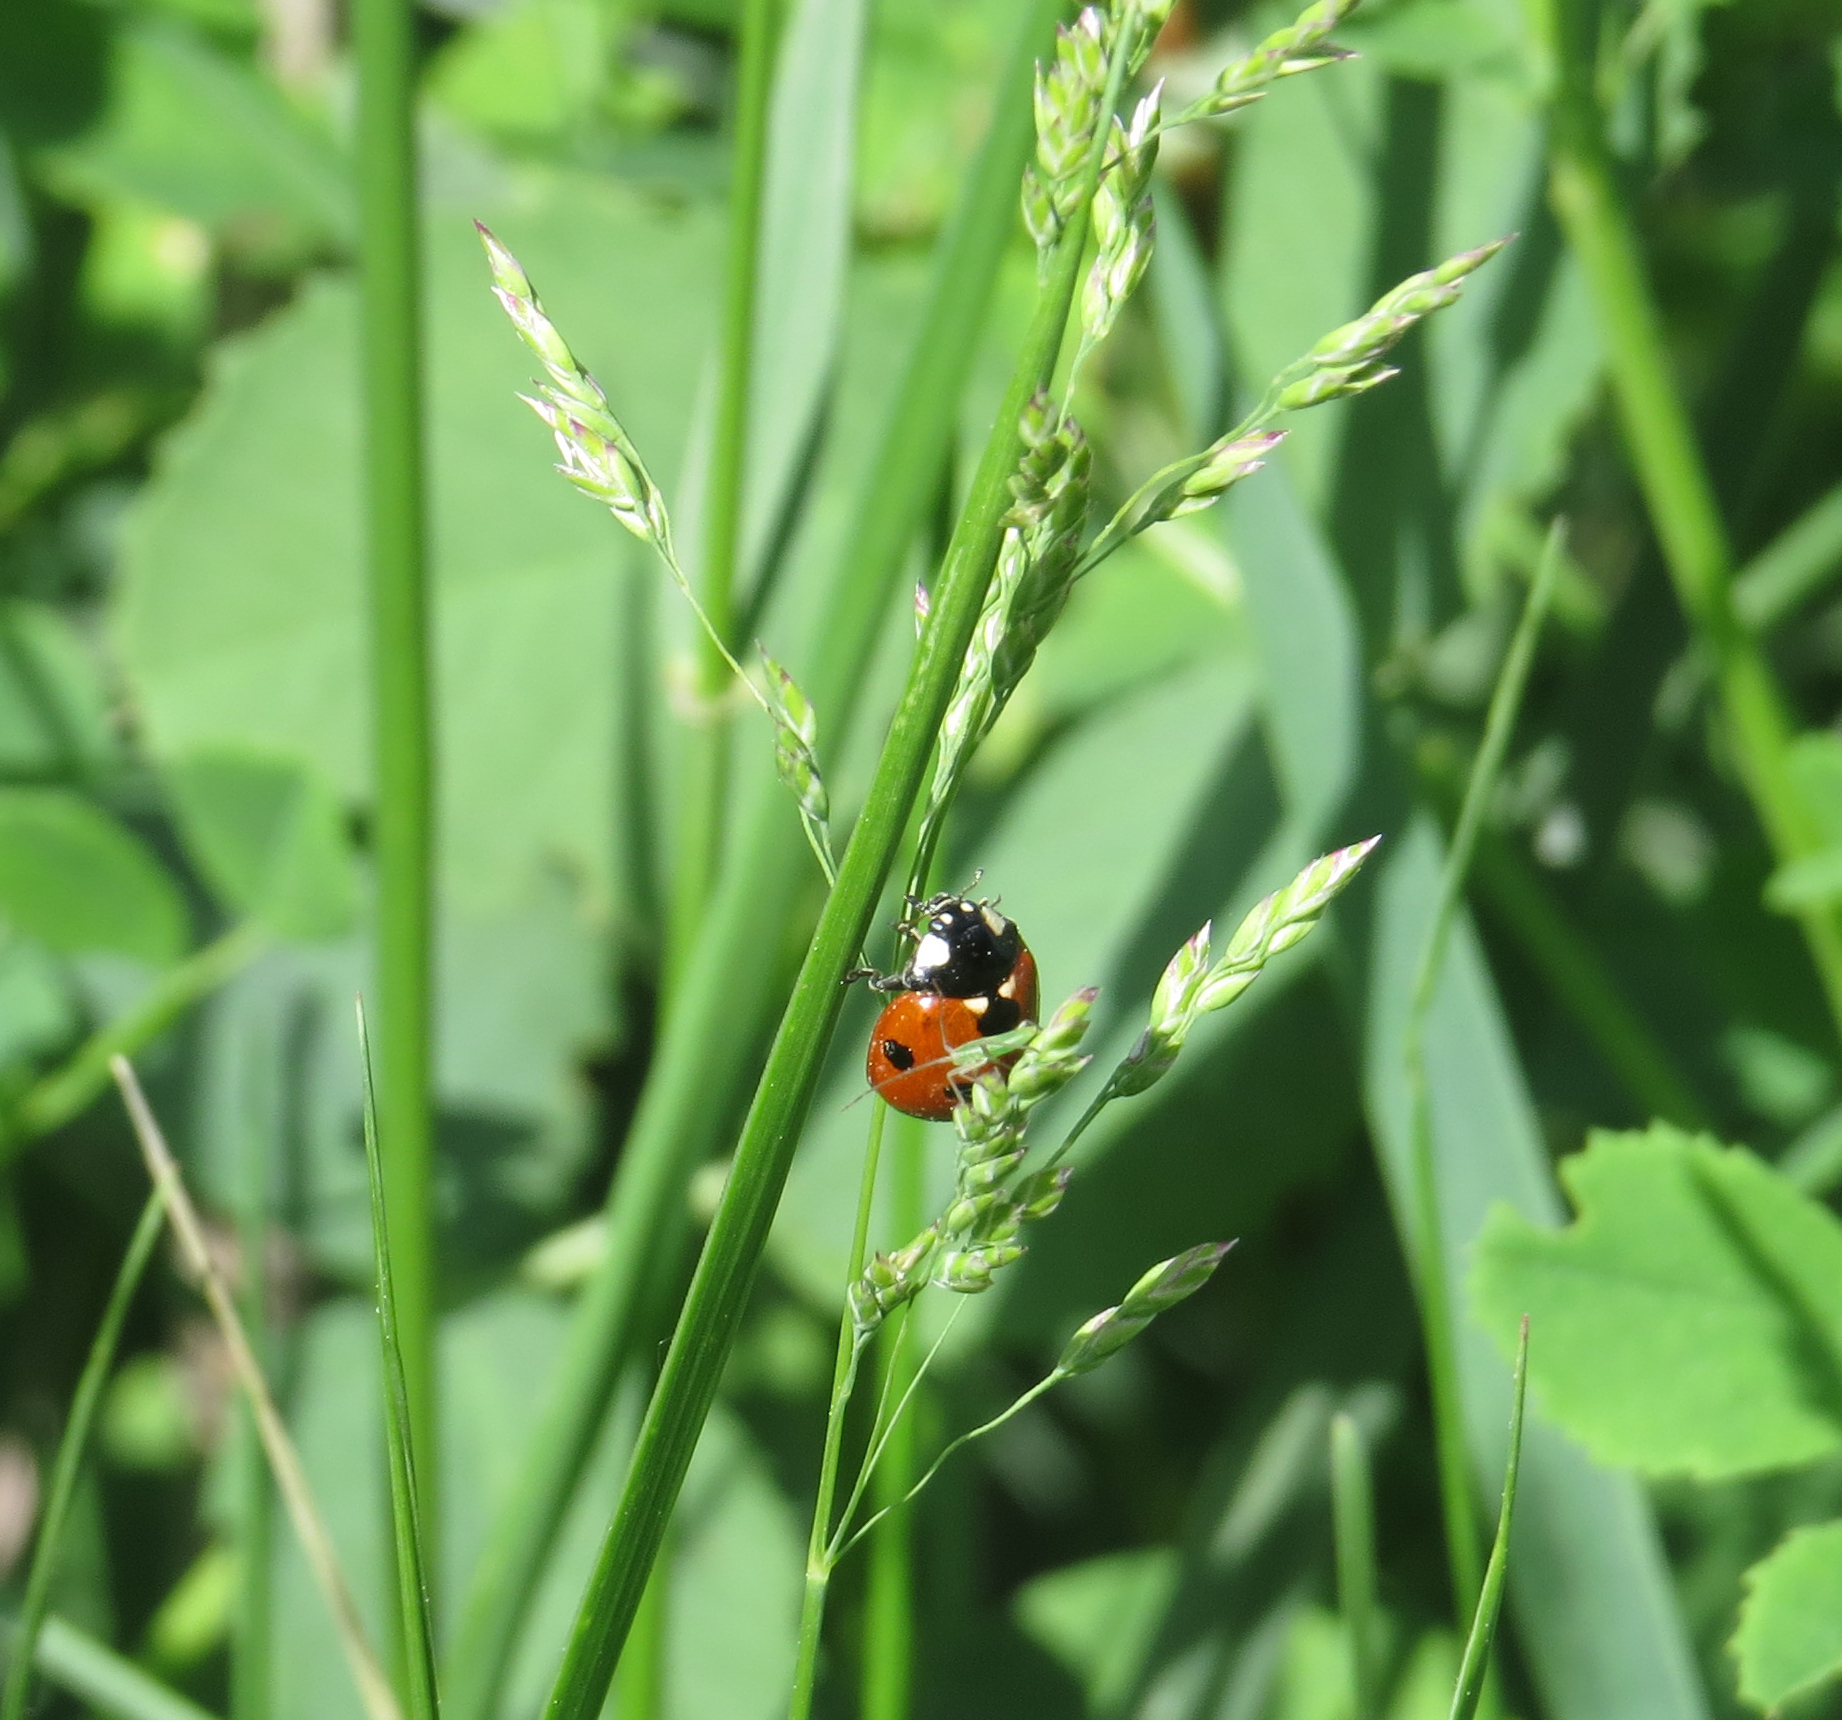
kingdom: Animalia
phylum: Arthropoda
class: Insecta
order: Coleoptera
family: Coccinellidae
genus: Coccinella
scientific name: Coccinella septempunctata
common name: Sevenspotted lady beetle
